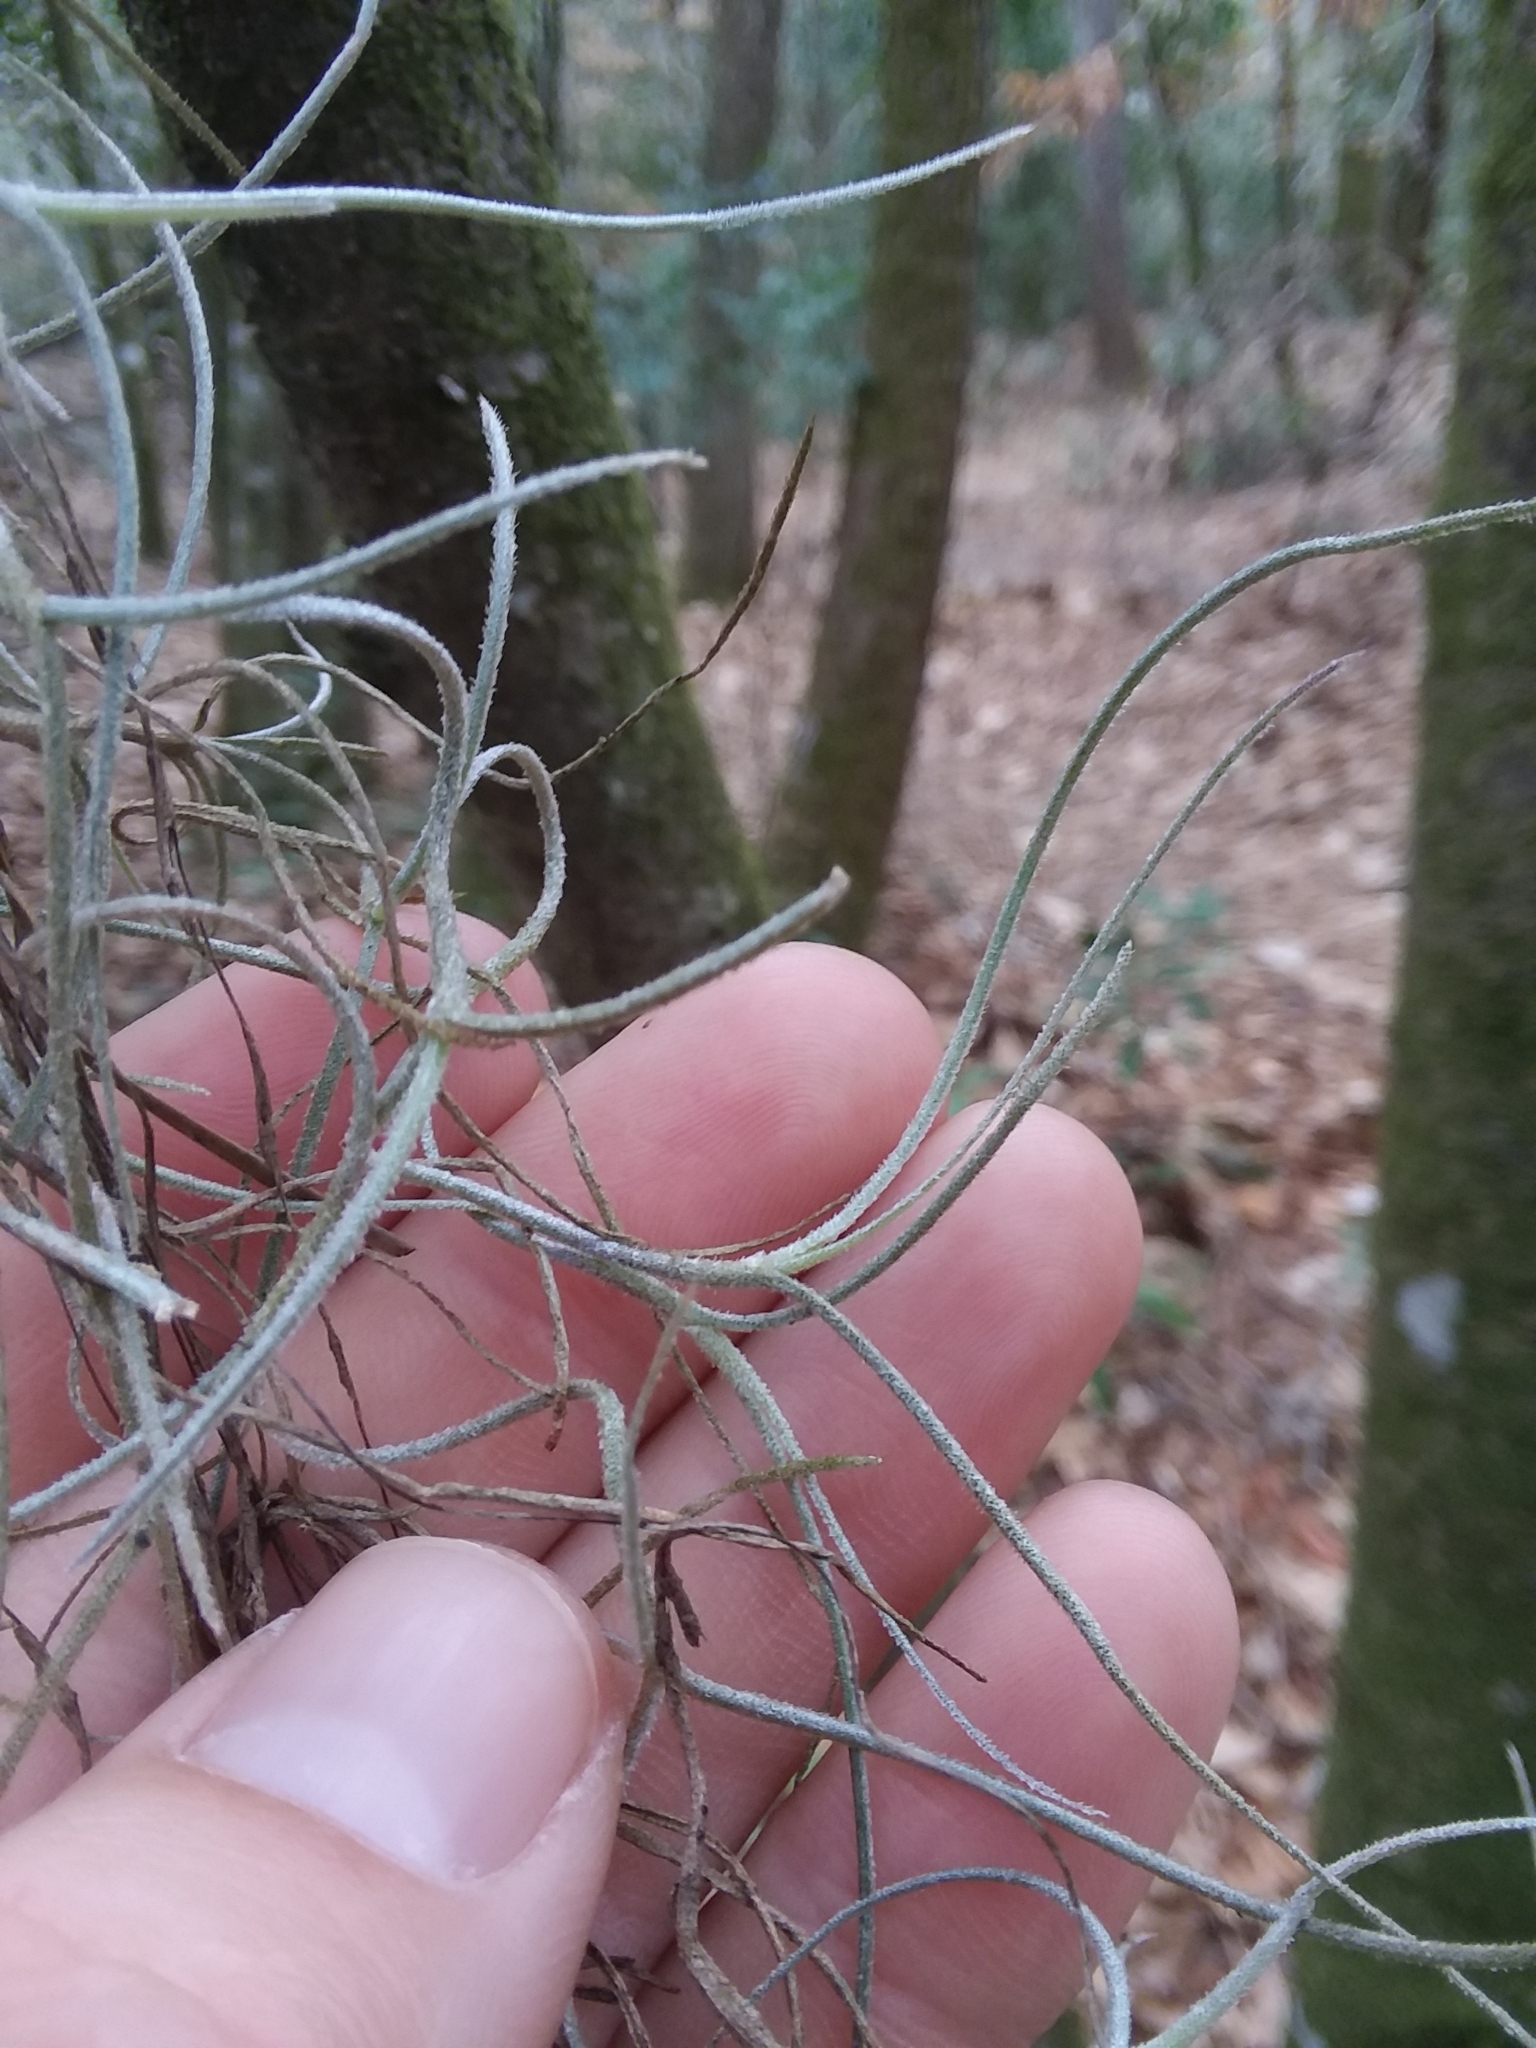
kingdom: Plantae
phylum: Tracheophyta
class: Liliopsida
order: Poales
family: Bromeliaceae
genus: Tillandsia
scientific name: Tillandsia usneoides
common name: Spanish moss
